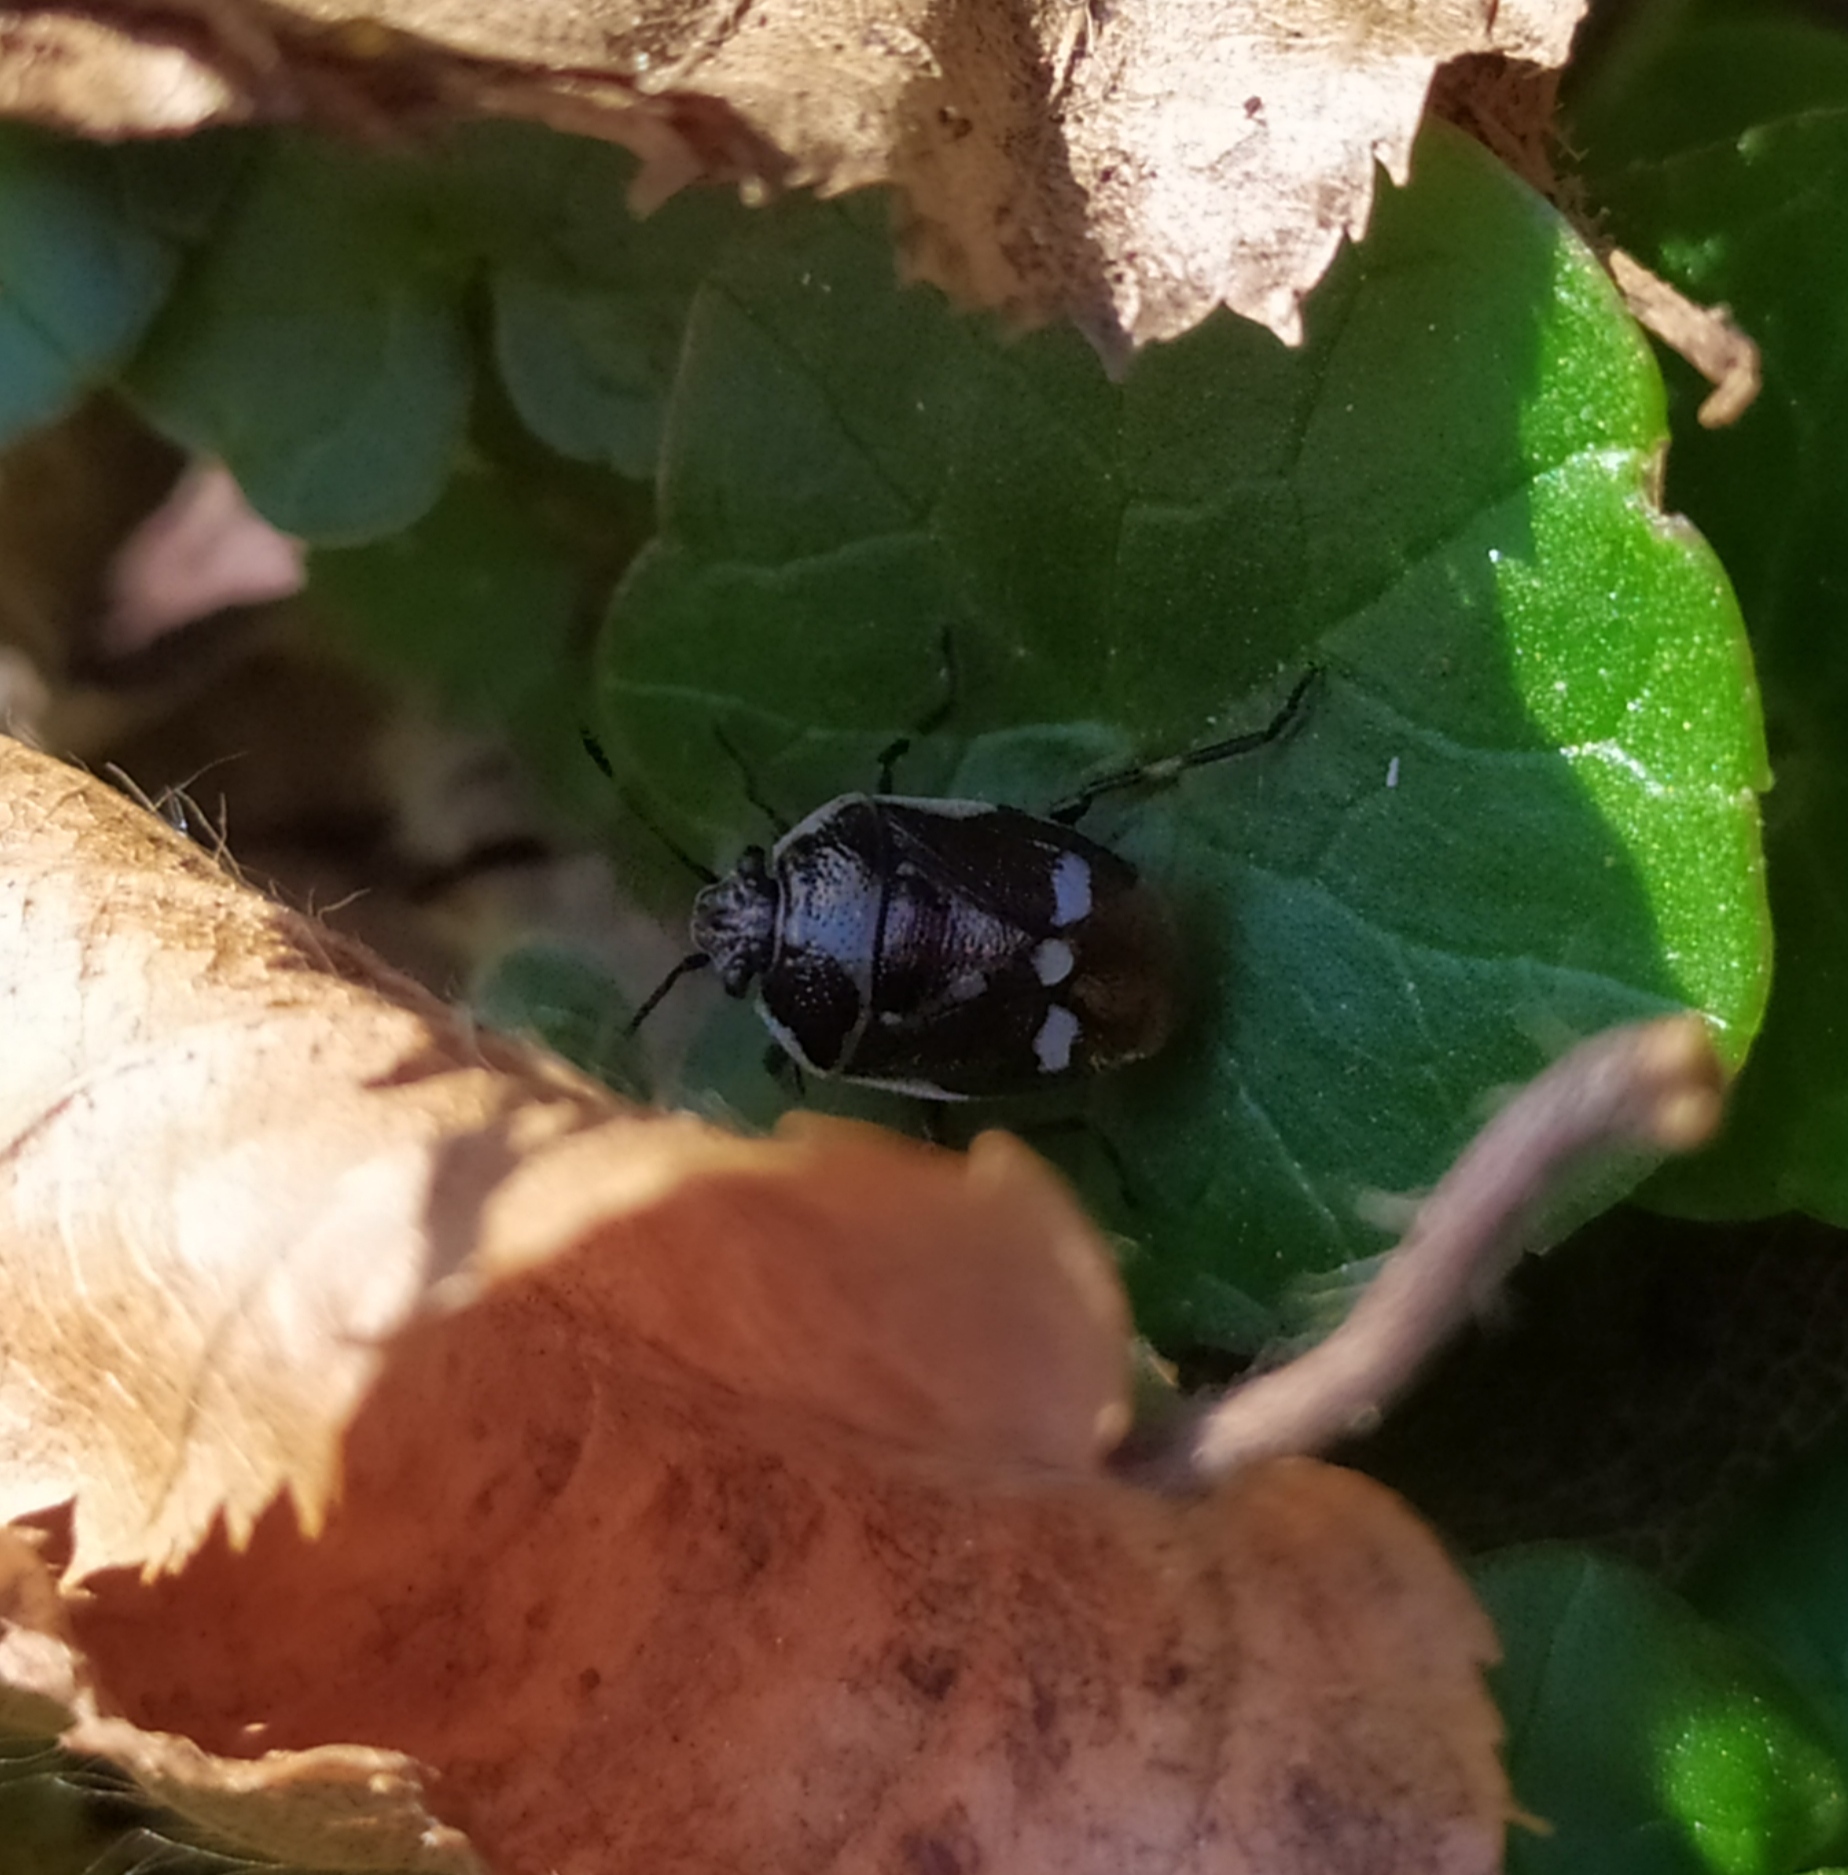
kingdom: Animalia
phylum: Arthropoda
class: Insecta
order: Hemiptera
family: Pentatomidae
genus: Eurydema
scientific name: Eurydema oleracea
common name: Cabbage bug
